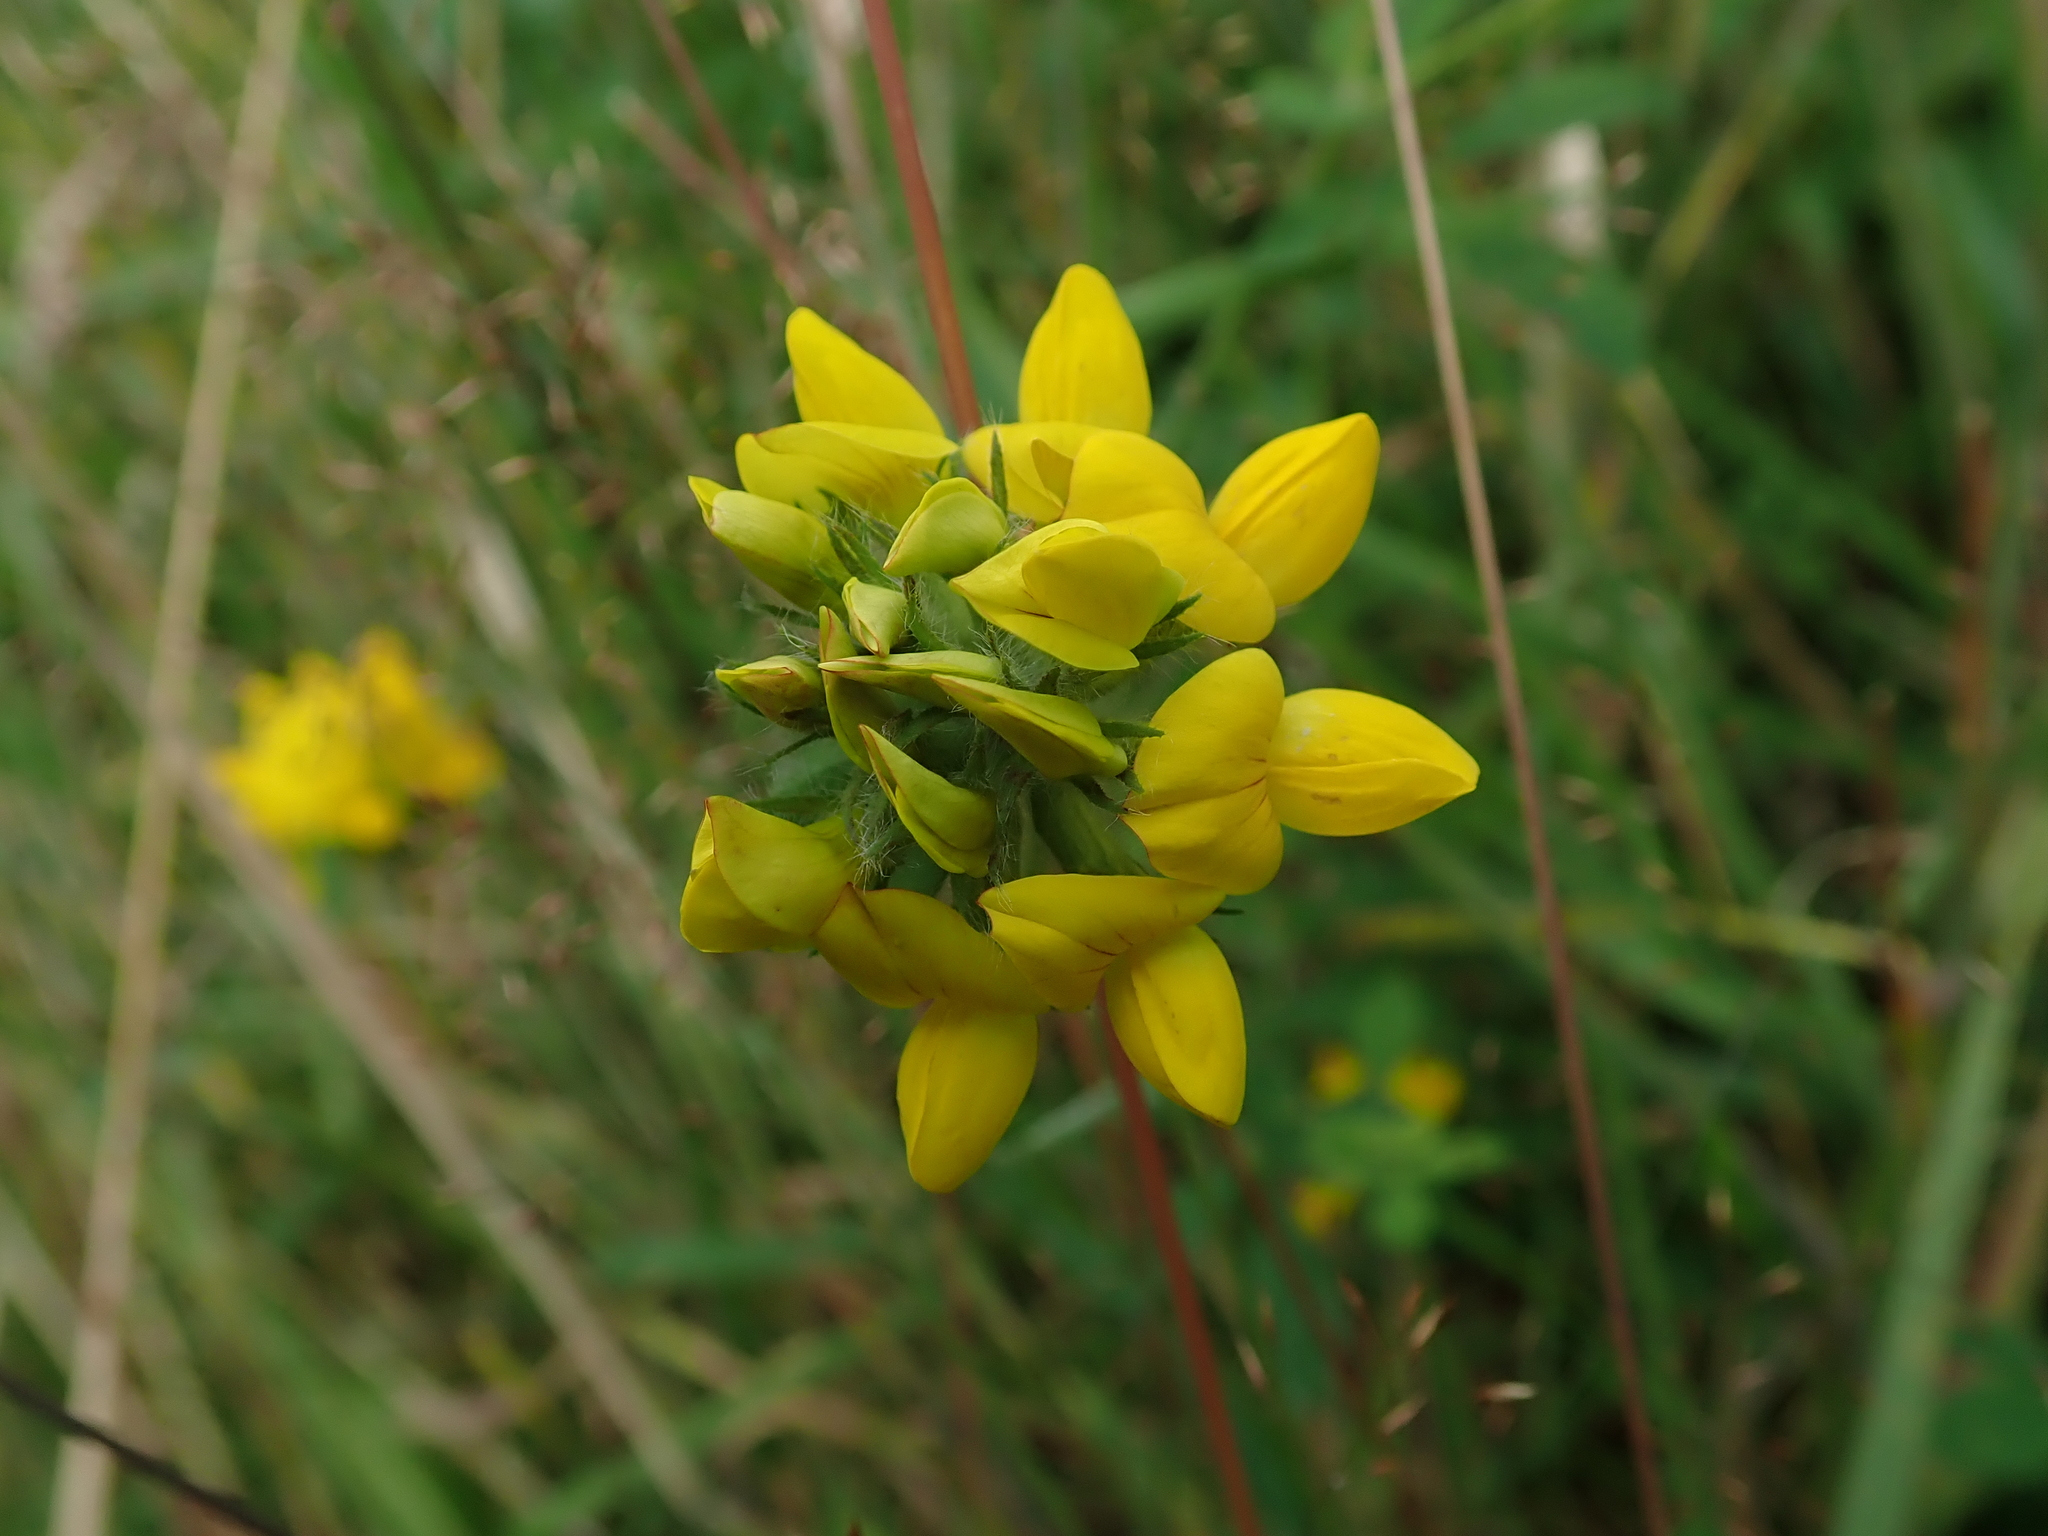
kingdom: Plantae
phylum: Tracheophyta
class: Magnoliopsida
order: Fabales
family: Fabaceae
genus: Lotus
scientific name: Lotus pedunculatus
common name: Greater birdsfoot-trefoil
